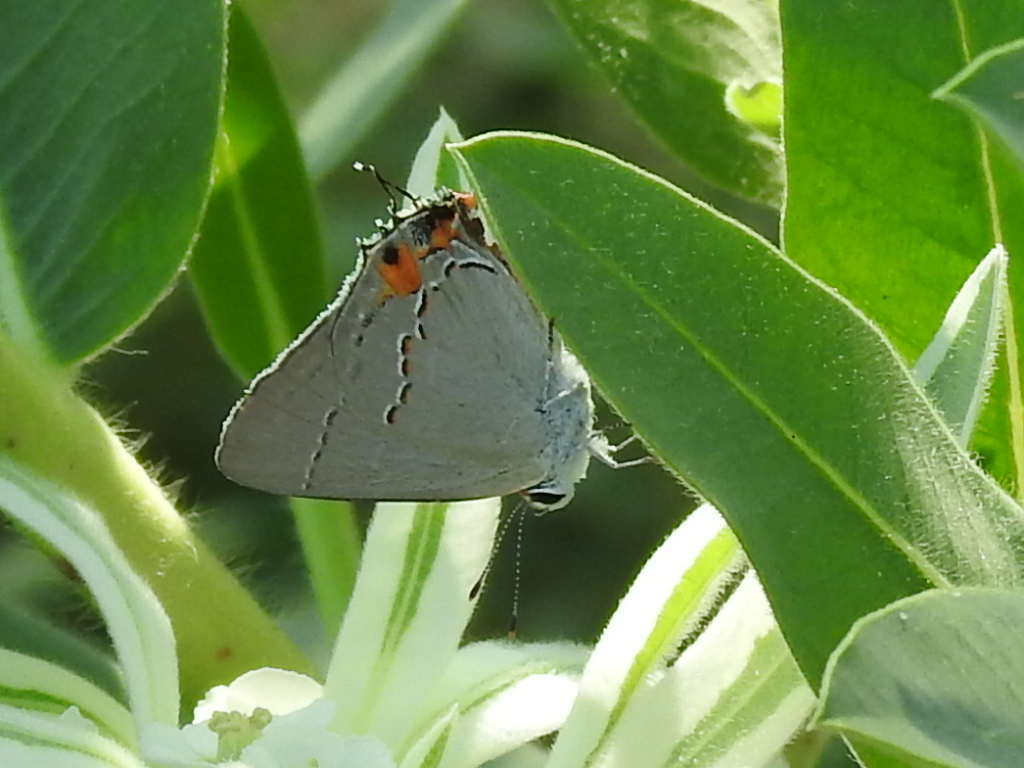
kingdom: Animalia
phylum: Arthropoda
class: Insecta
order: Lepidoptera
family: Lycaenidae
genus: Strymon
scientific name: Strymon melinus
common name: Gray hairstreak
